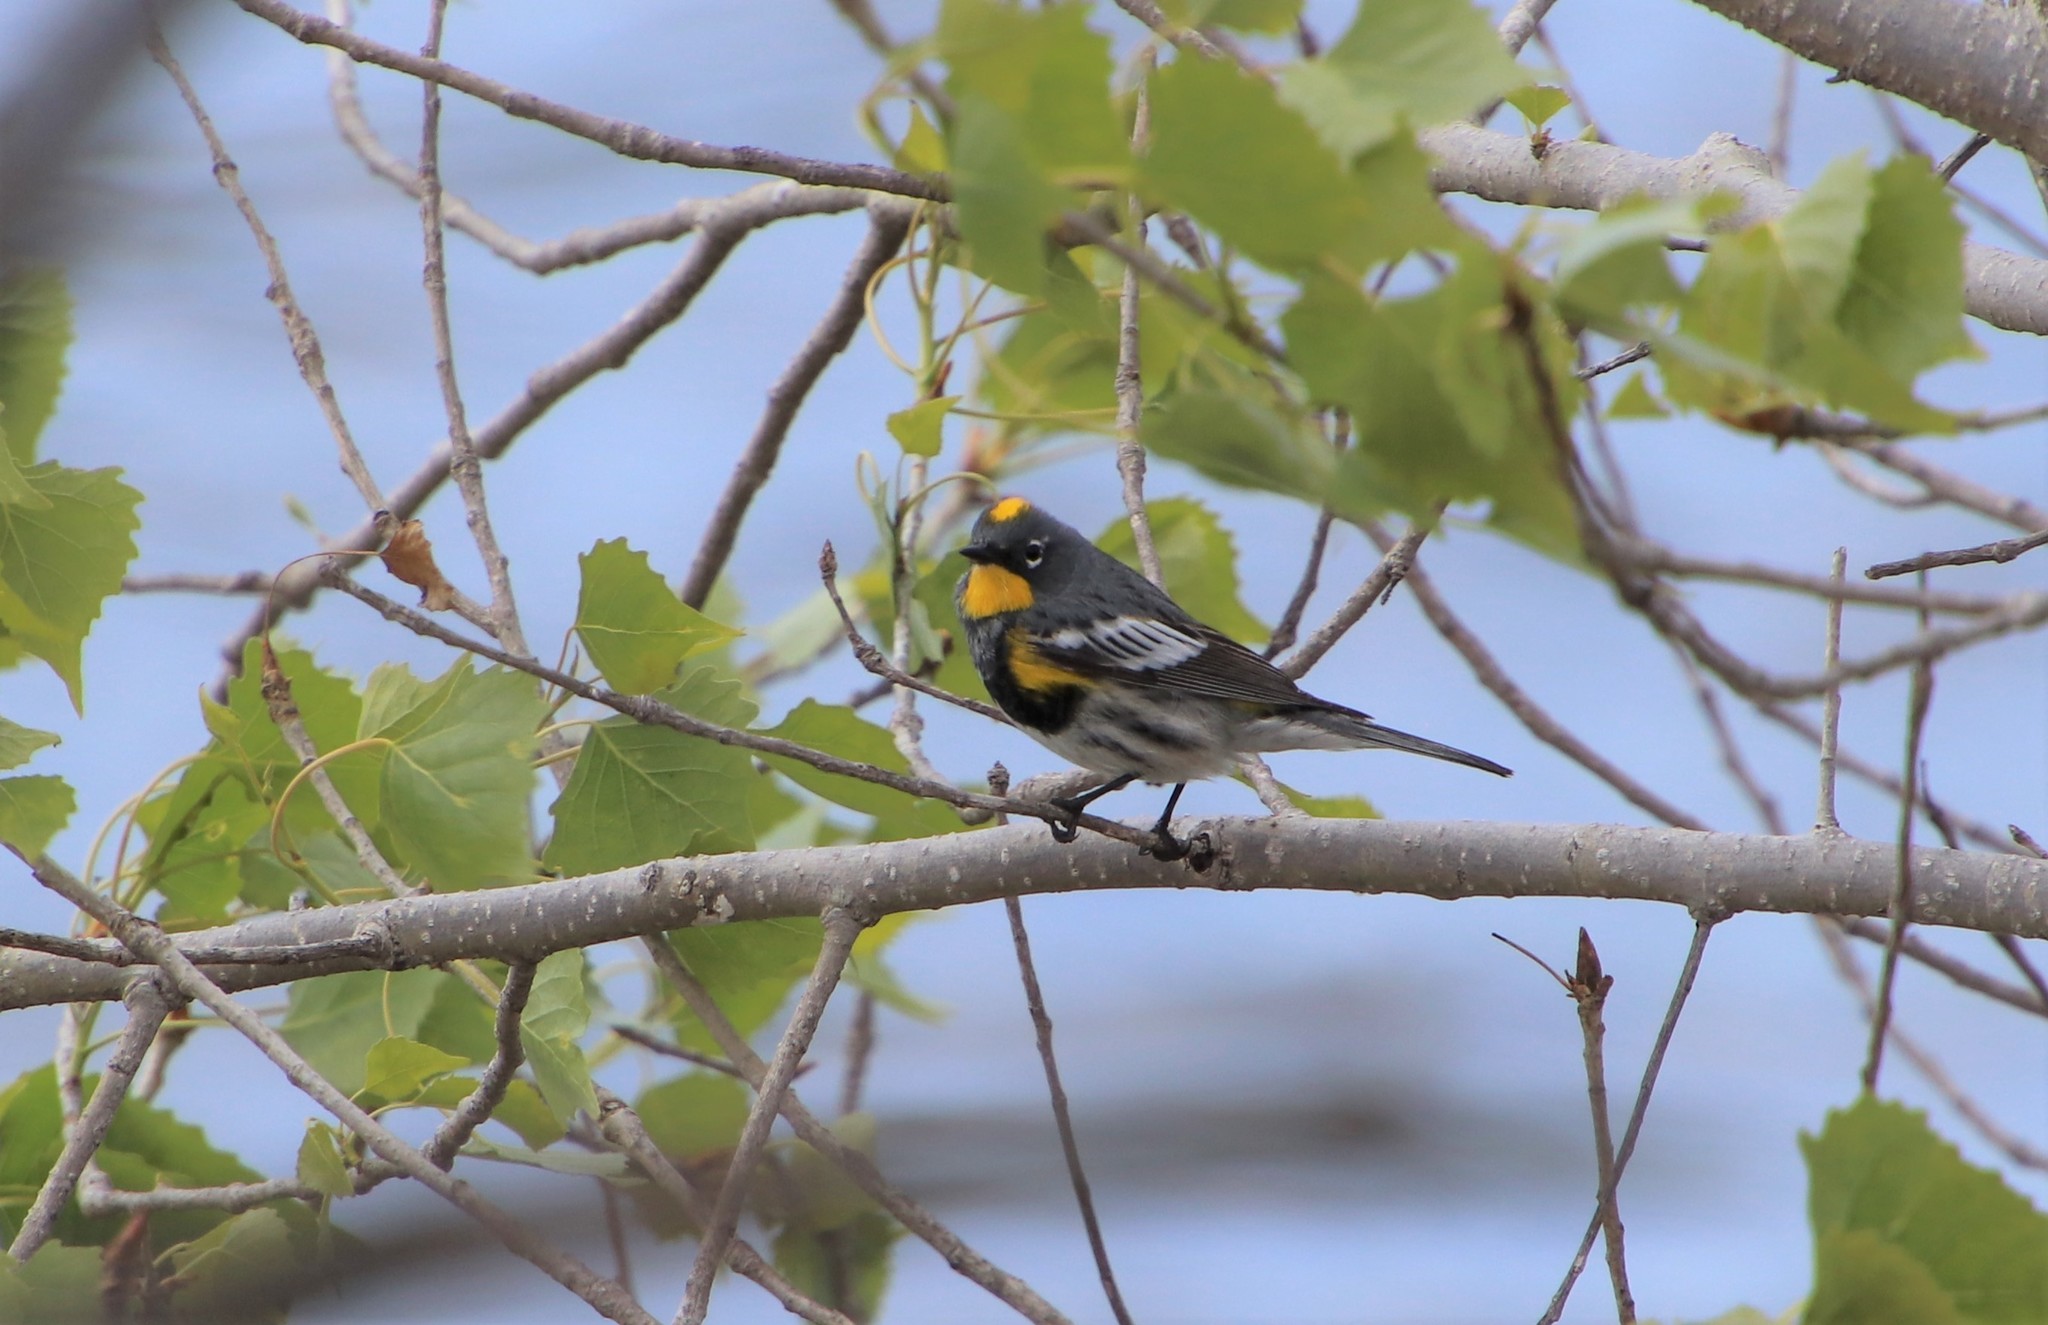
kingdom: Animalia
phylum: Chordata
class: Aves
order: Passeriformes
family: Parulidae
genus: Setophaga
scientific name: Setophaga auduboni
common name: Audubon's warbler
